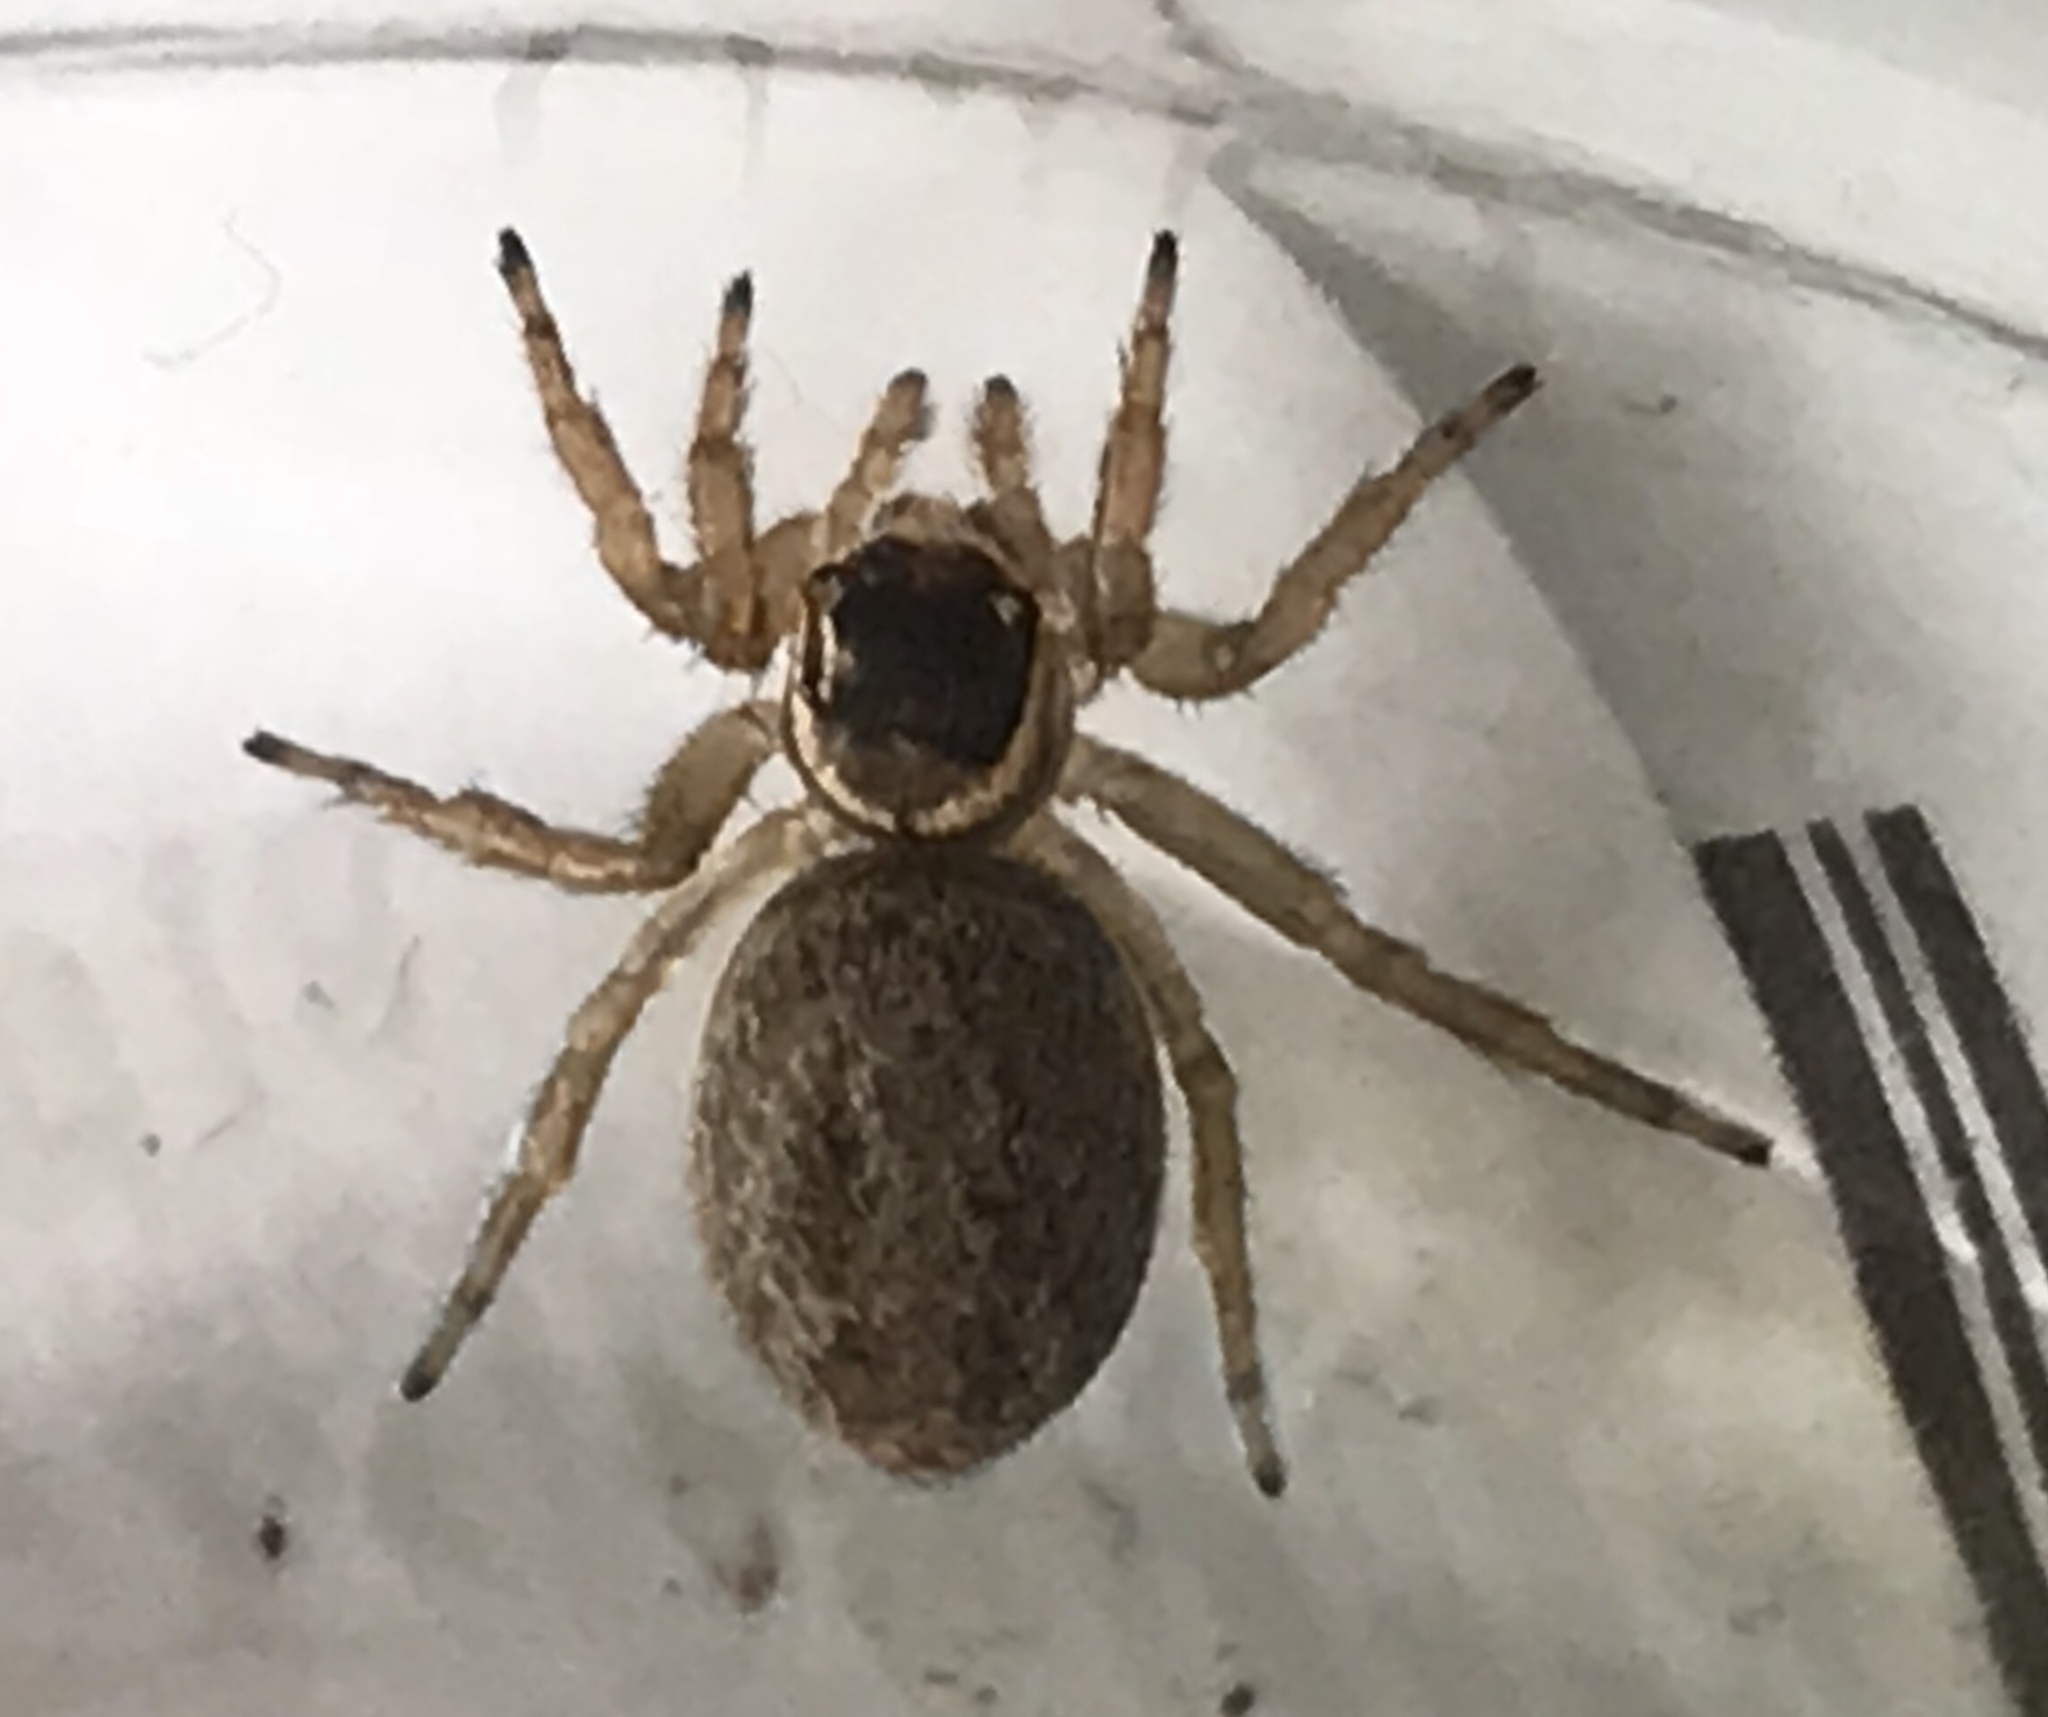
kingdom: Animalia
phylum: Arthropoda
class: Arachnida
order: Araneae
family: Salticidae
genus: Maratus
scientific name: Maratus griseus
